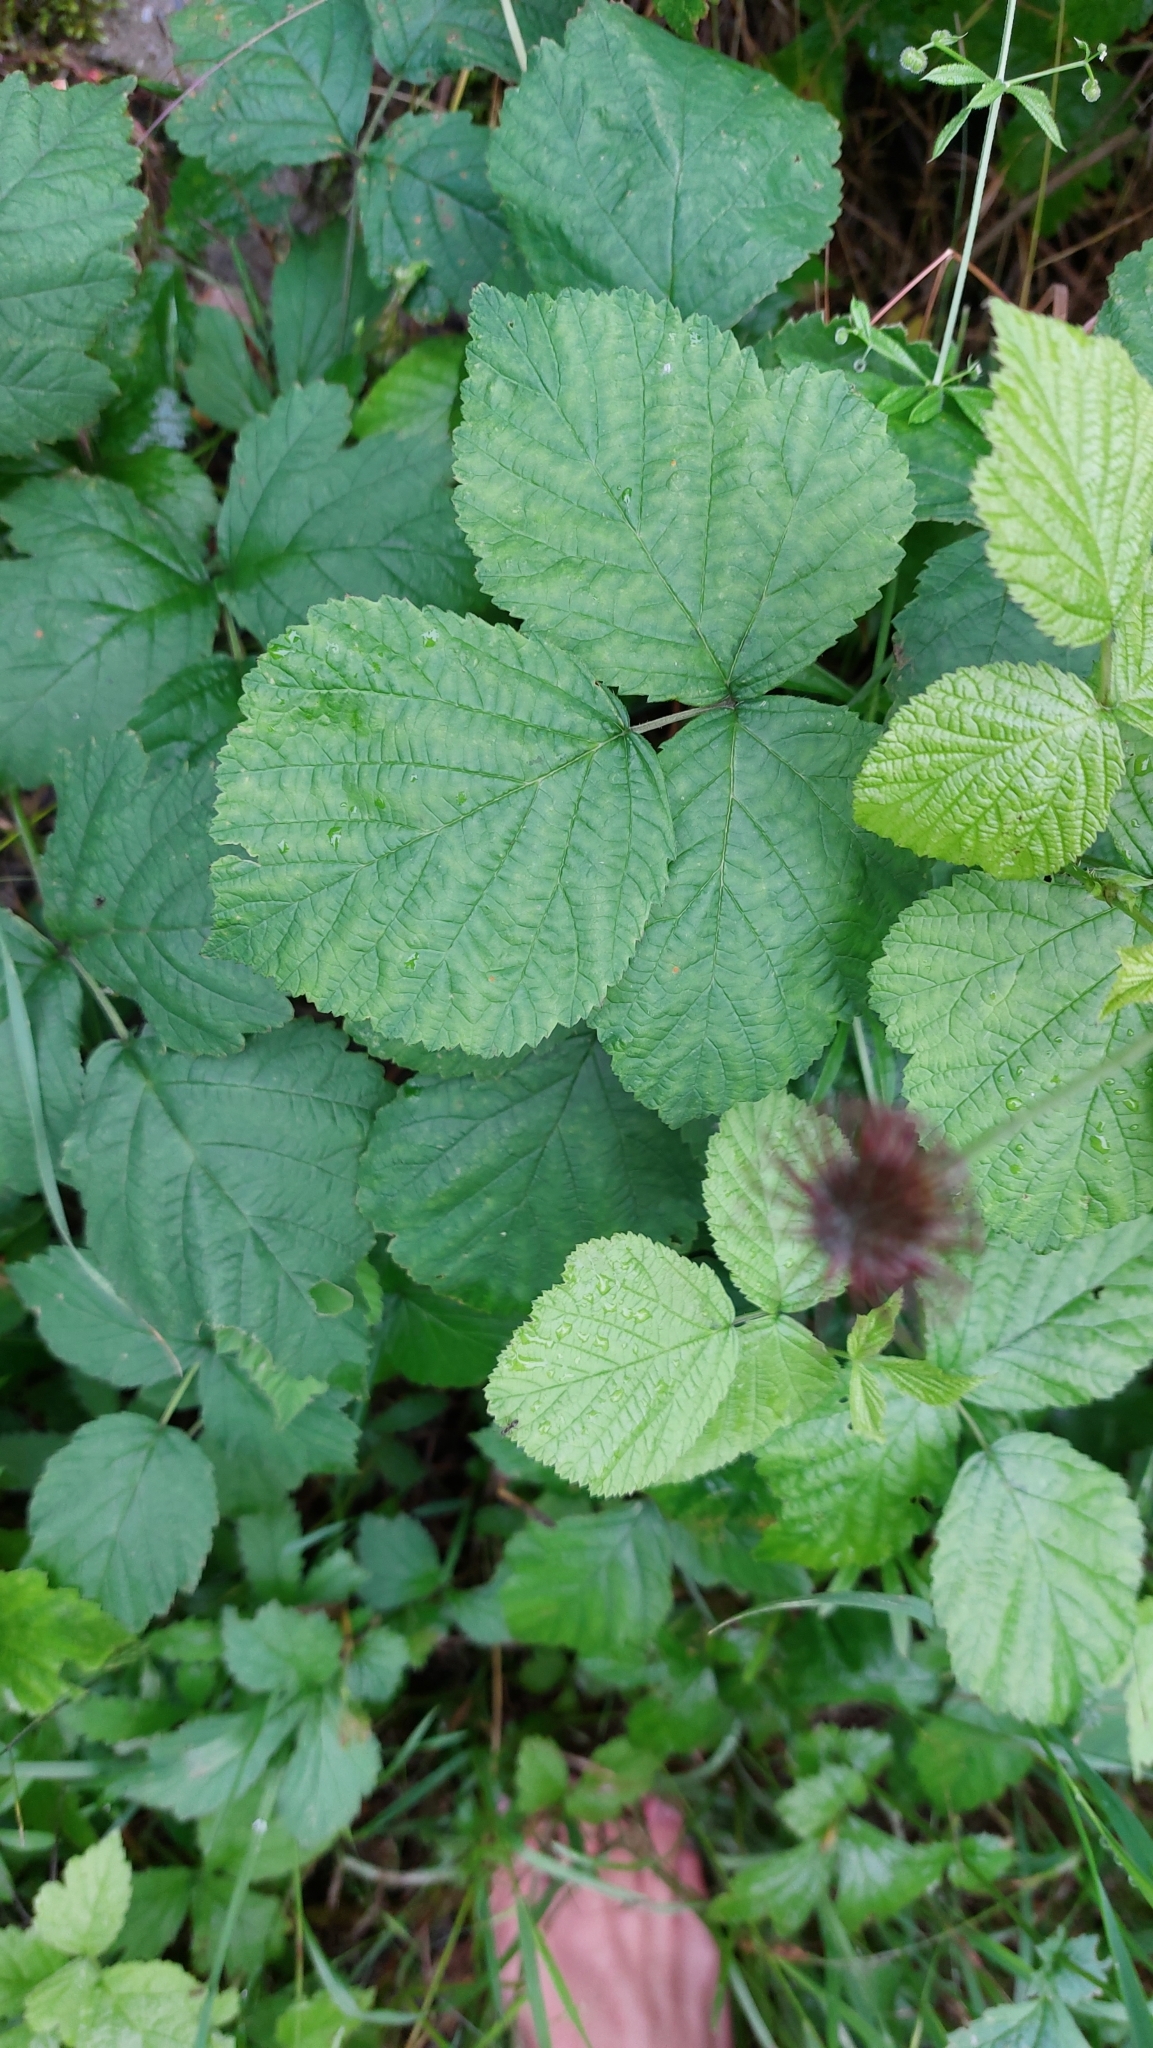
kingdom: Plantae
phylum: Tracheophyta
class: Magnoliopsida
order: Rosales
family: Rosaceae
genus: Rubus
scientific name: Rubus caesius
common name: Dewberry
